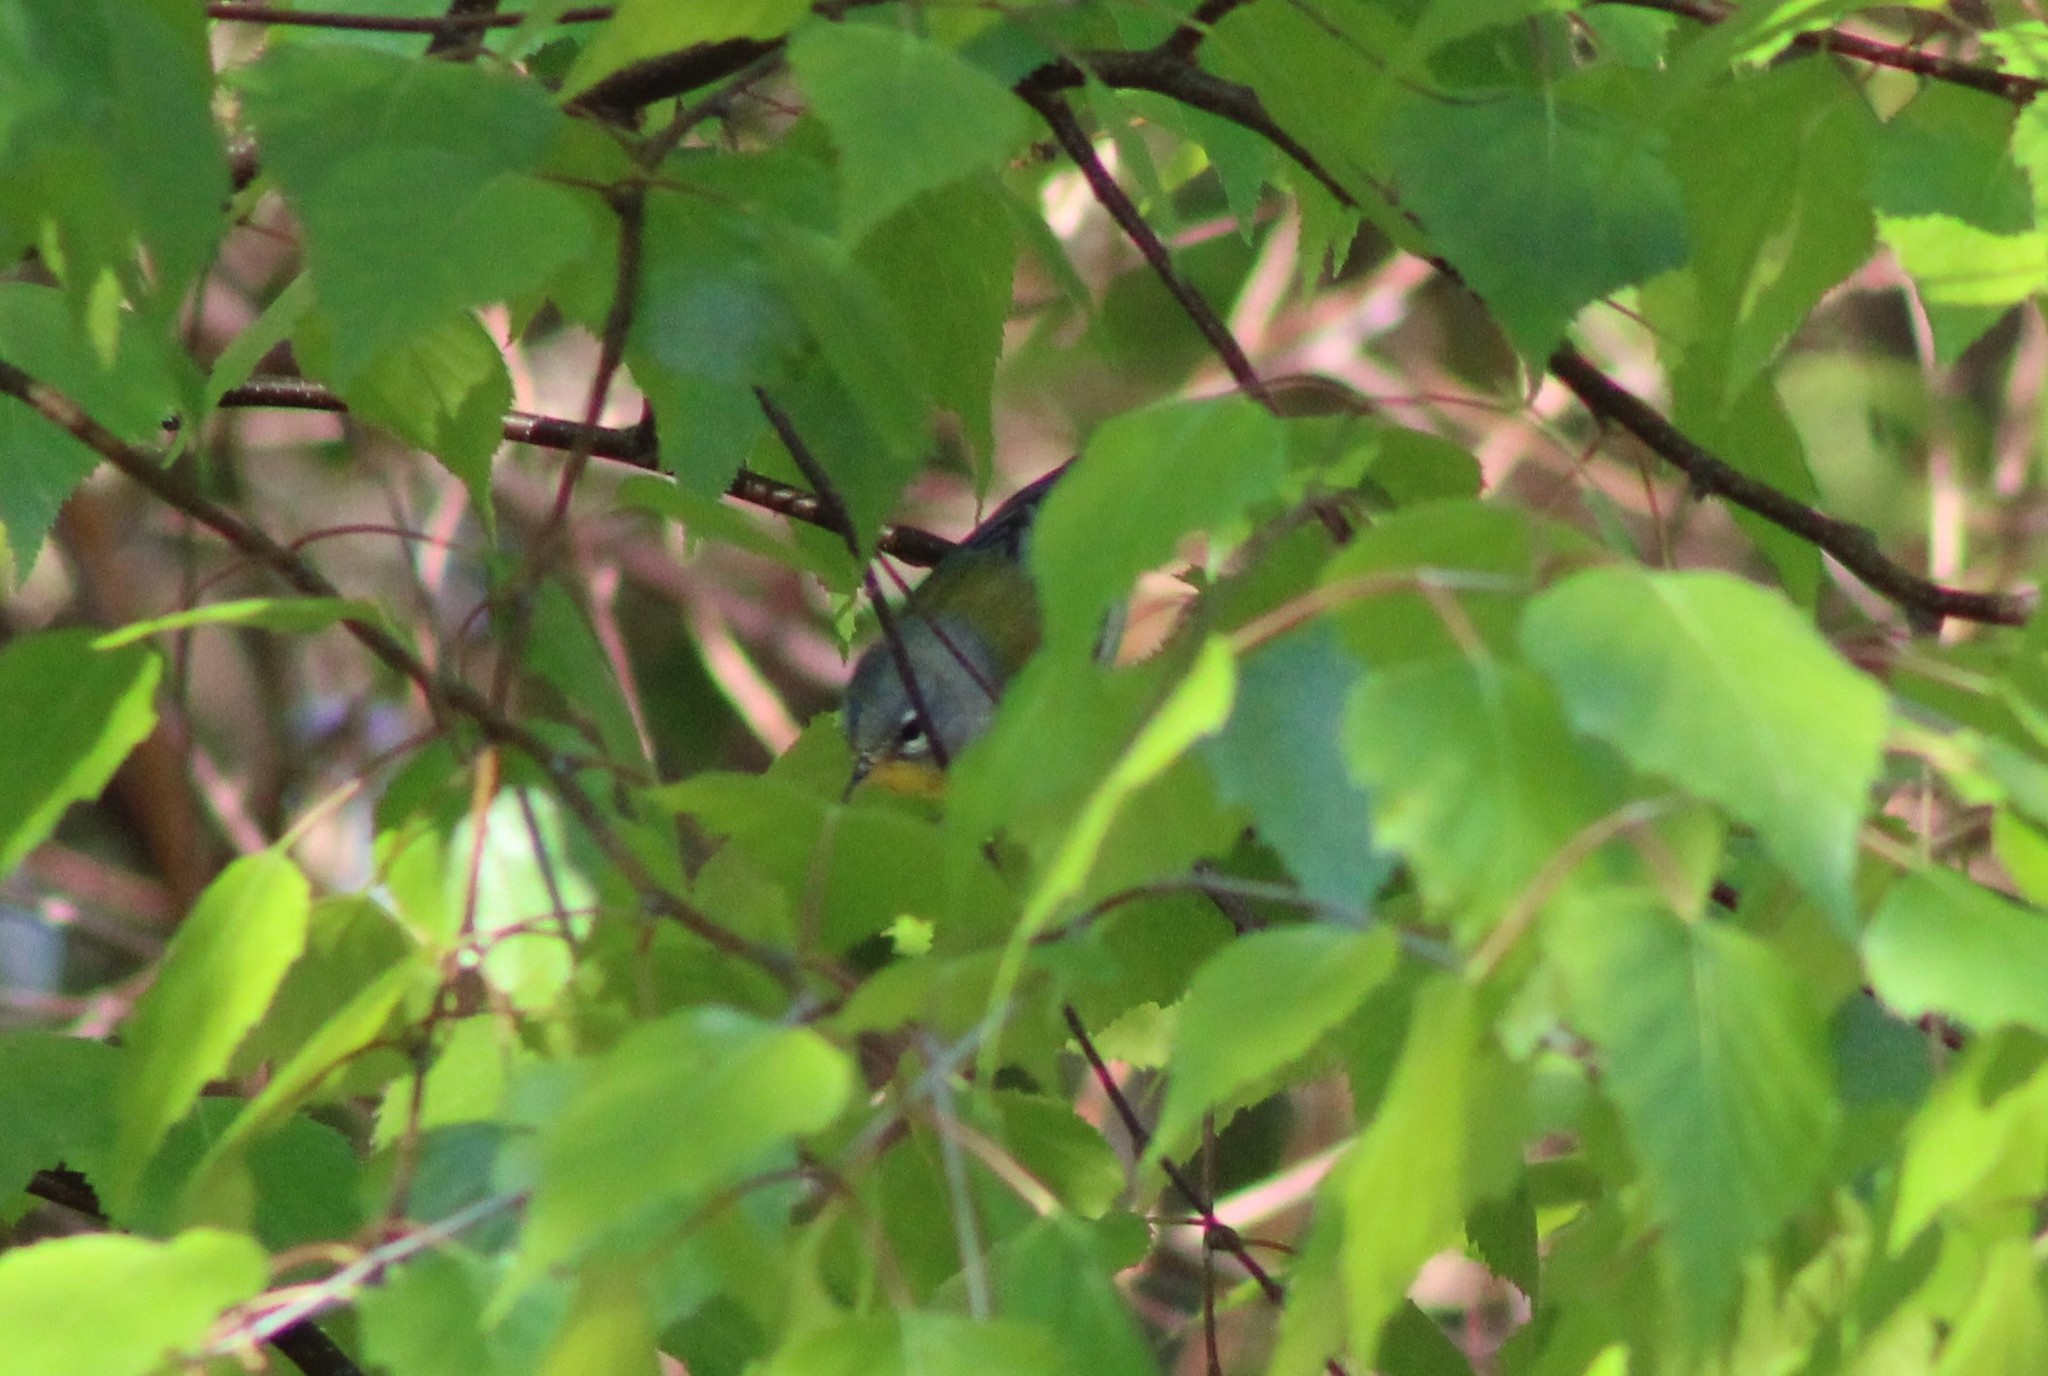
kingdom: Animalia
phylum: Chordata
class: Aves
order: Passeriformes
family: Parulidae
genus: Setophaga
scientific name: Setophaga americana
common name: Northern parula
